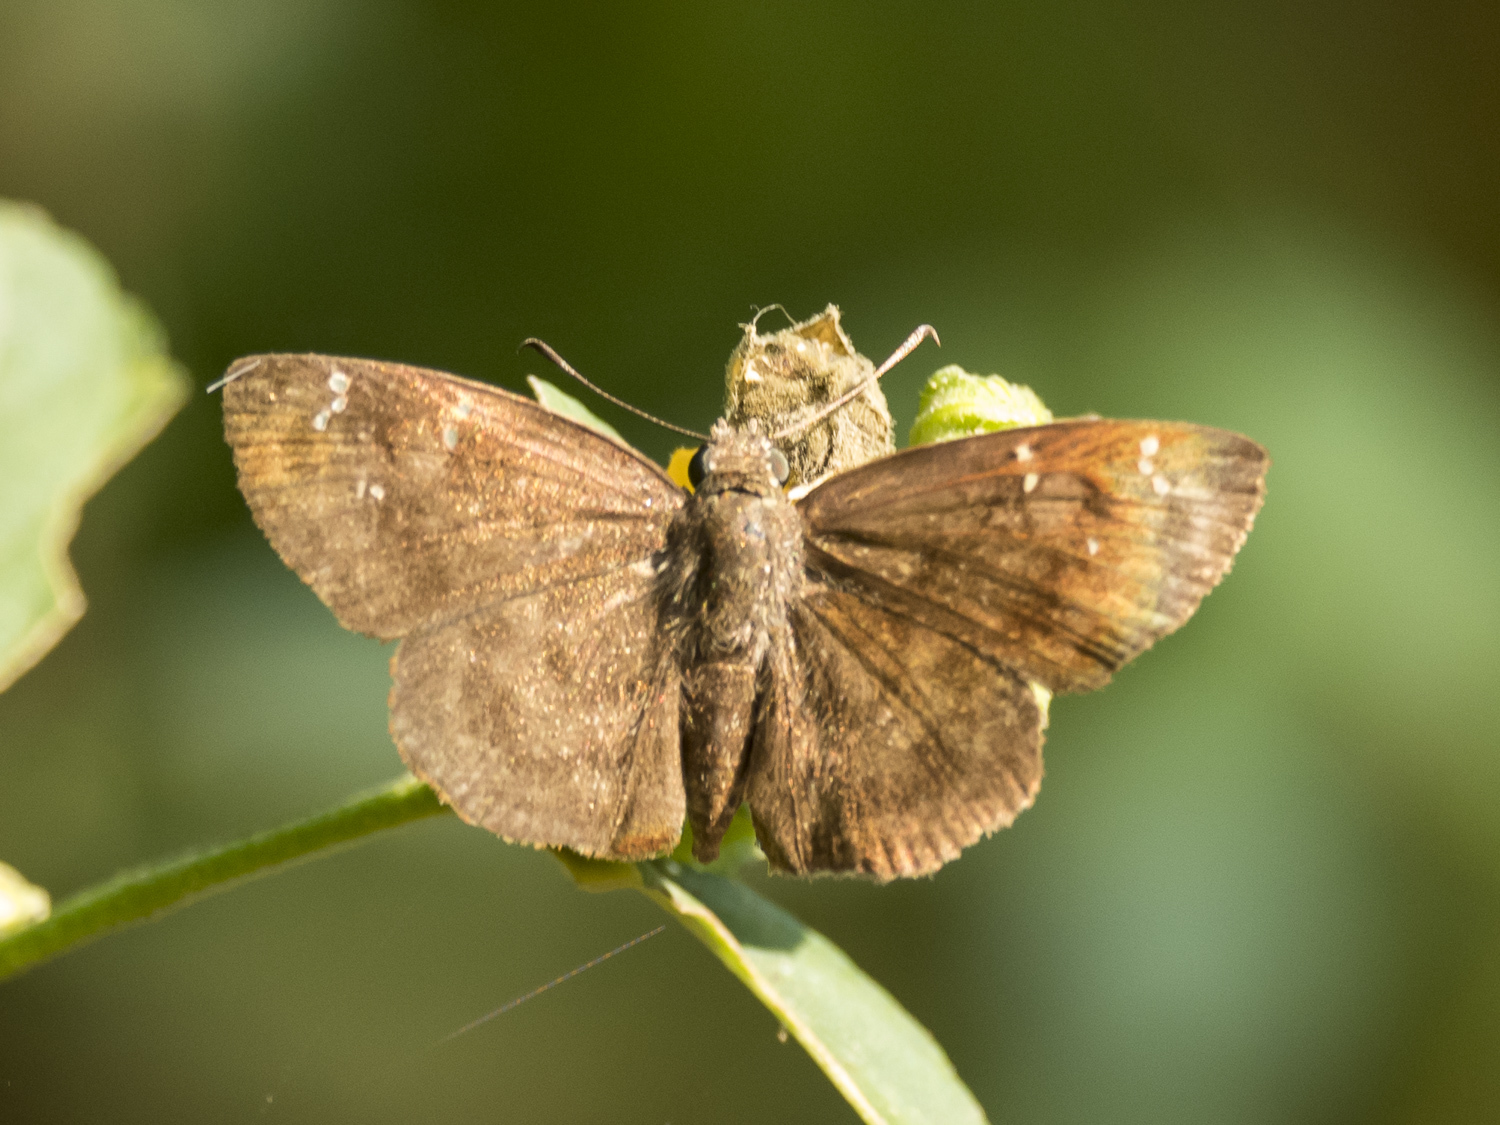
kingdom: Animalia
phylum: Arthropoda
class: Insecta
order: Lepidoptera
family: Hesperiidae
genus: Sarangesa
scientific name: Sarangesa dasahara
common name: Common small flat
